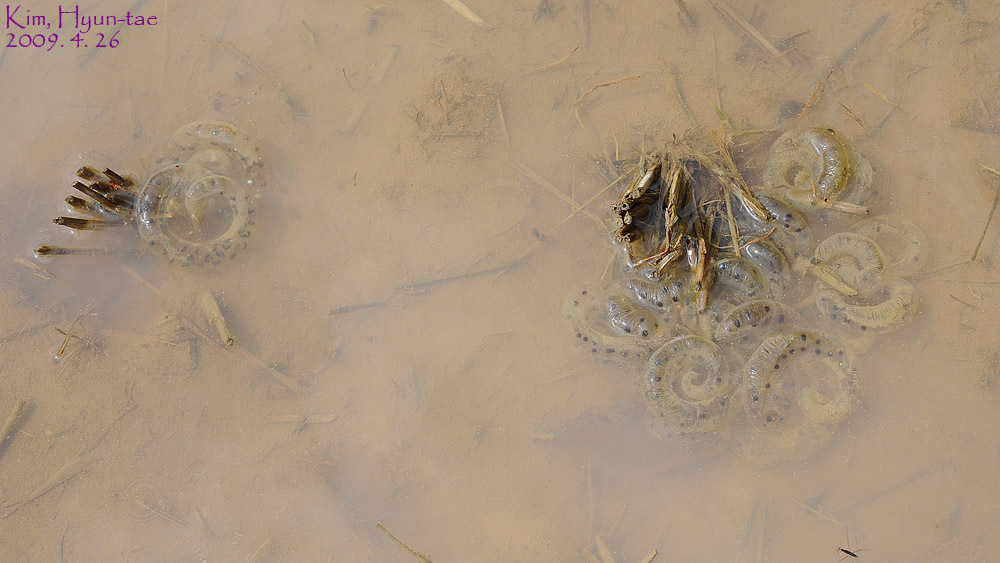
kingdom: Animalia
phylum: Chordata
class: Amphibia
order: Caudata
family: Hynobiidae
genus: Hynobius
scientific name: Hynobius leechii
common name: Gensan salamander
